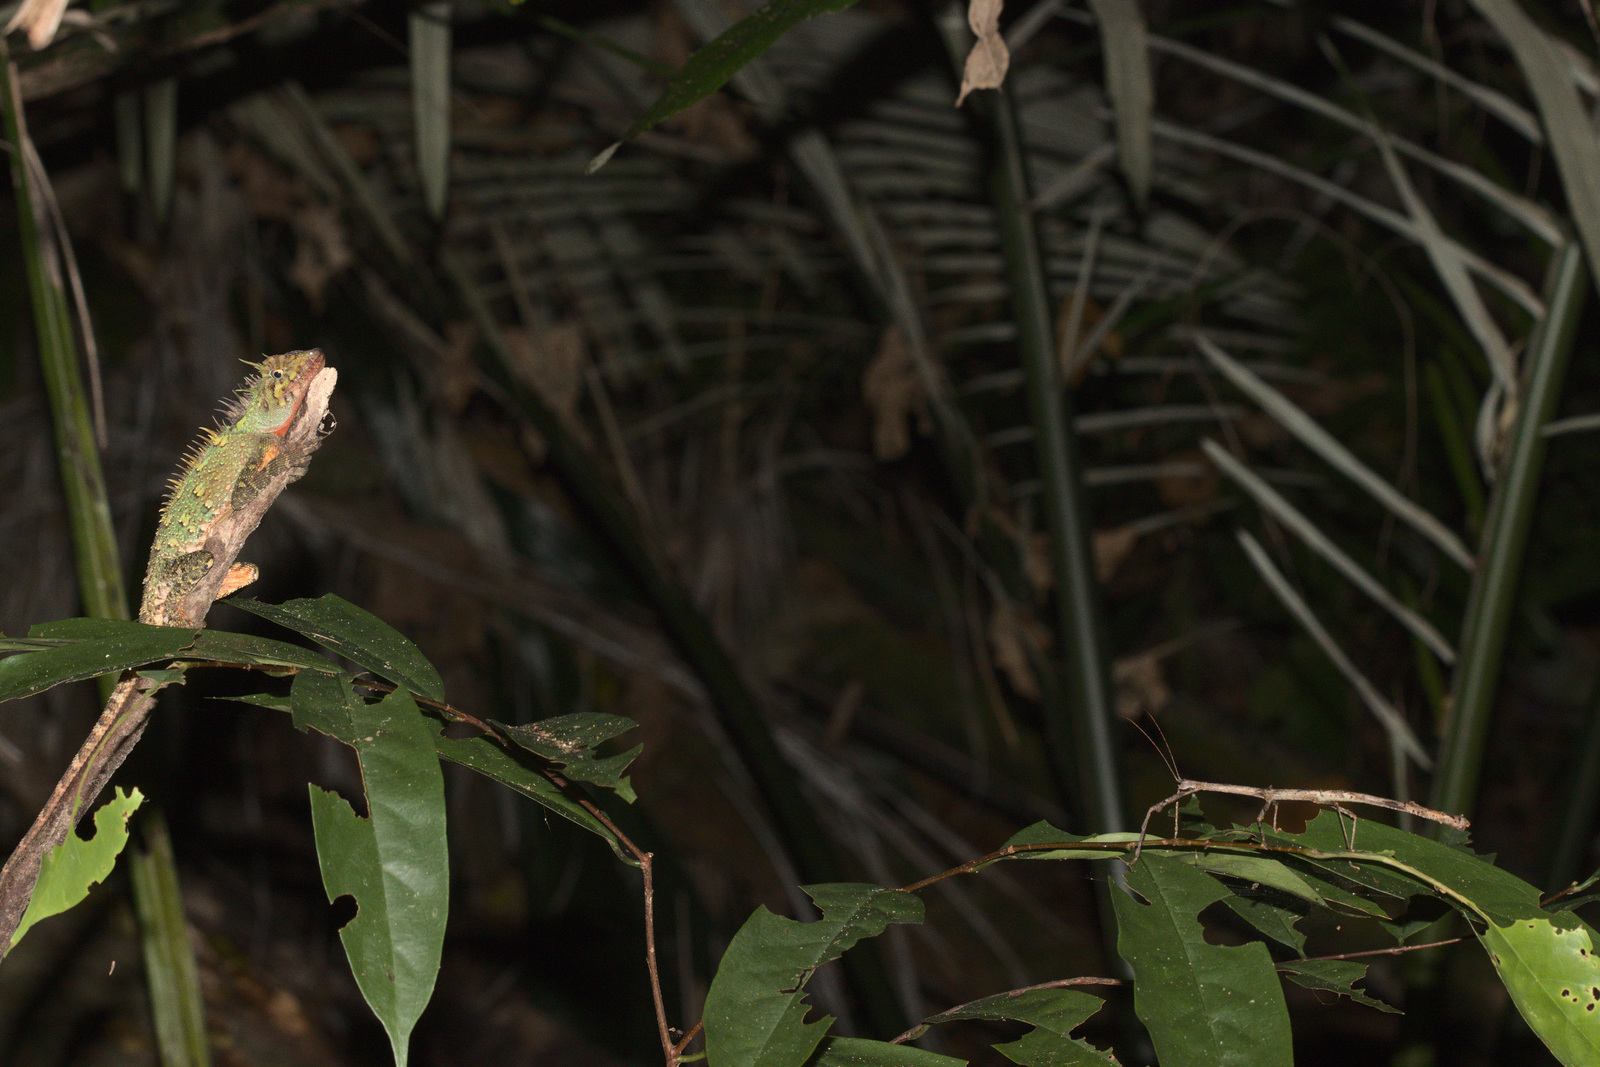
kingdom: Animalia
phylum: Chordata
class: Squamata
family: Agamidae
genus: Acanthosaura
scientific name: Acanthosaura armata
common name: Armored pricklenape
